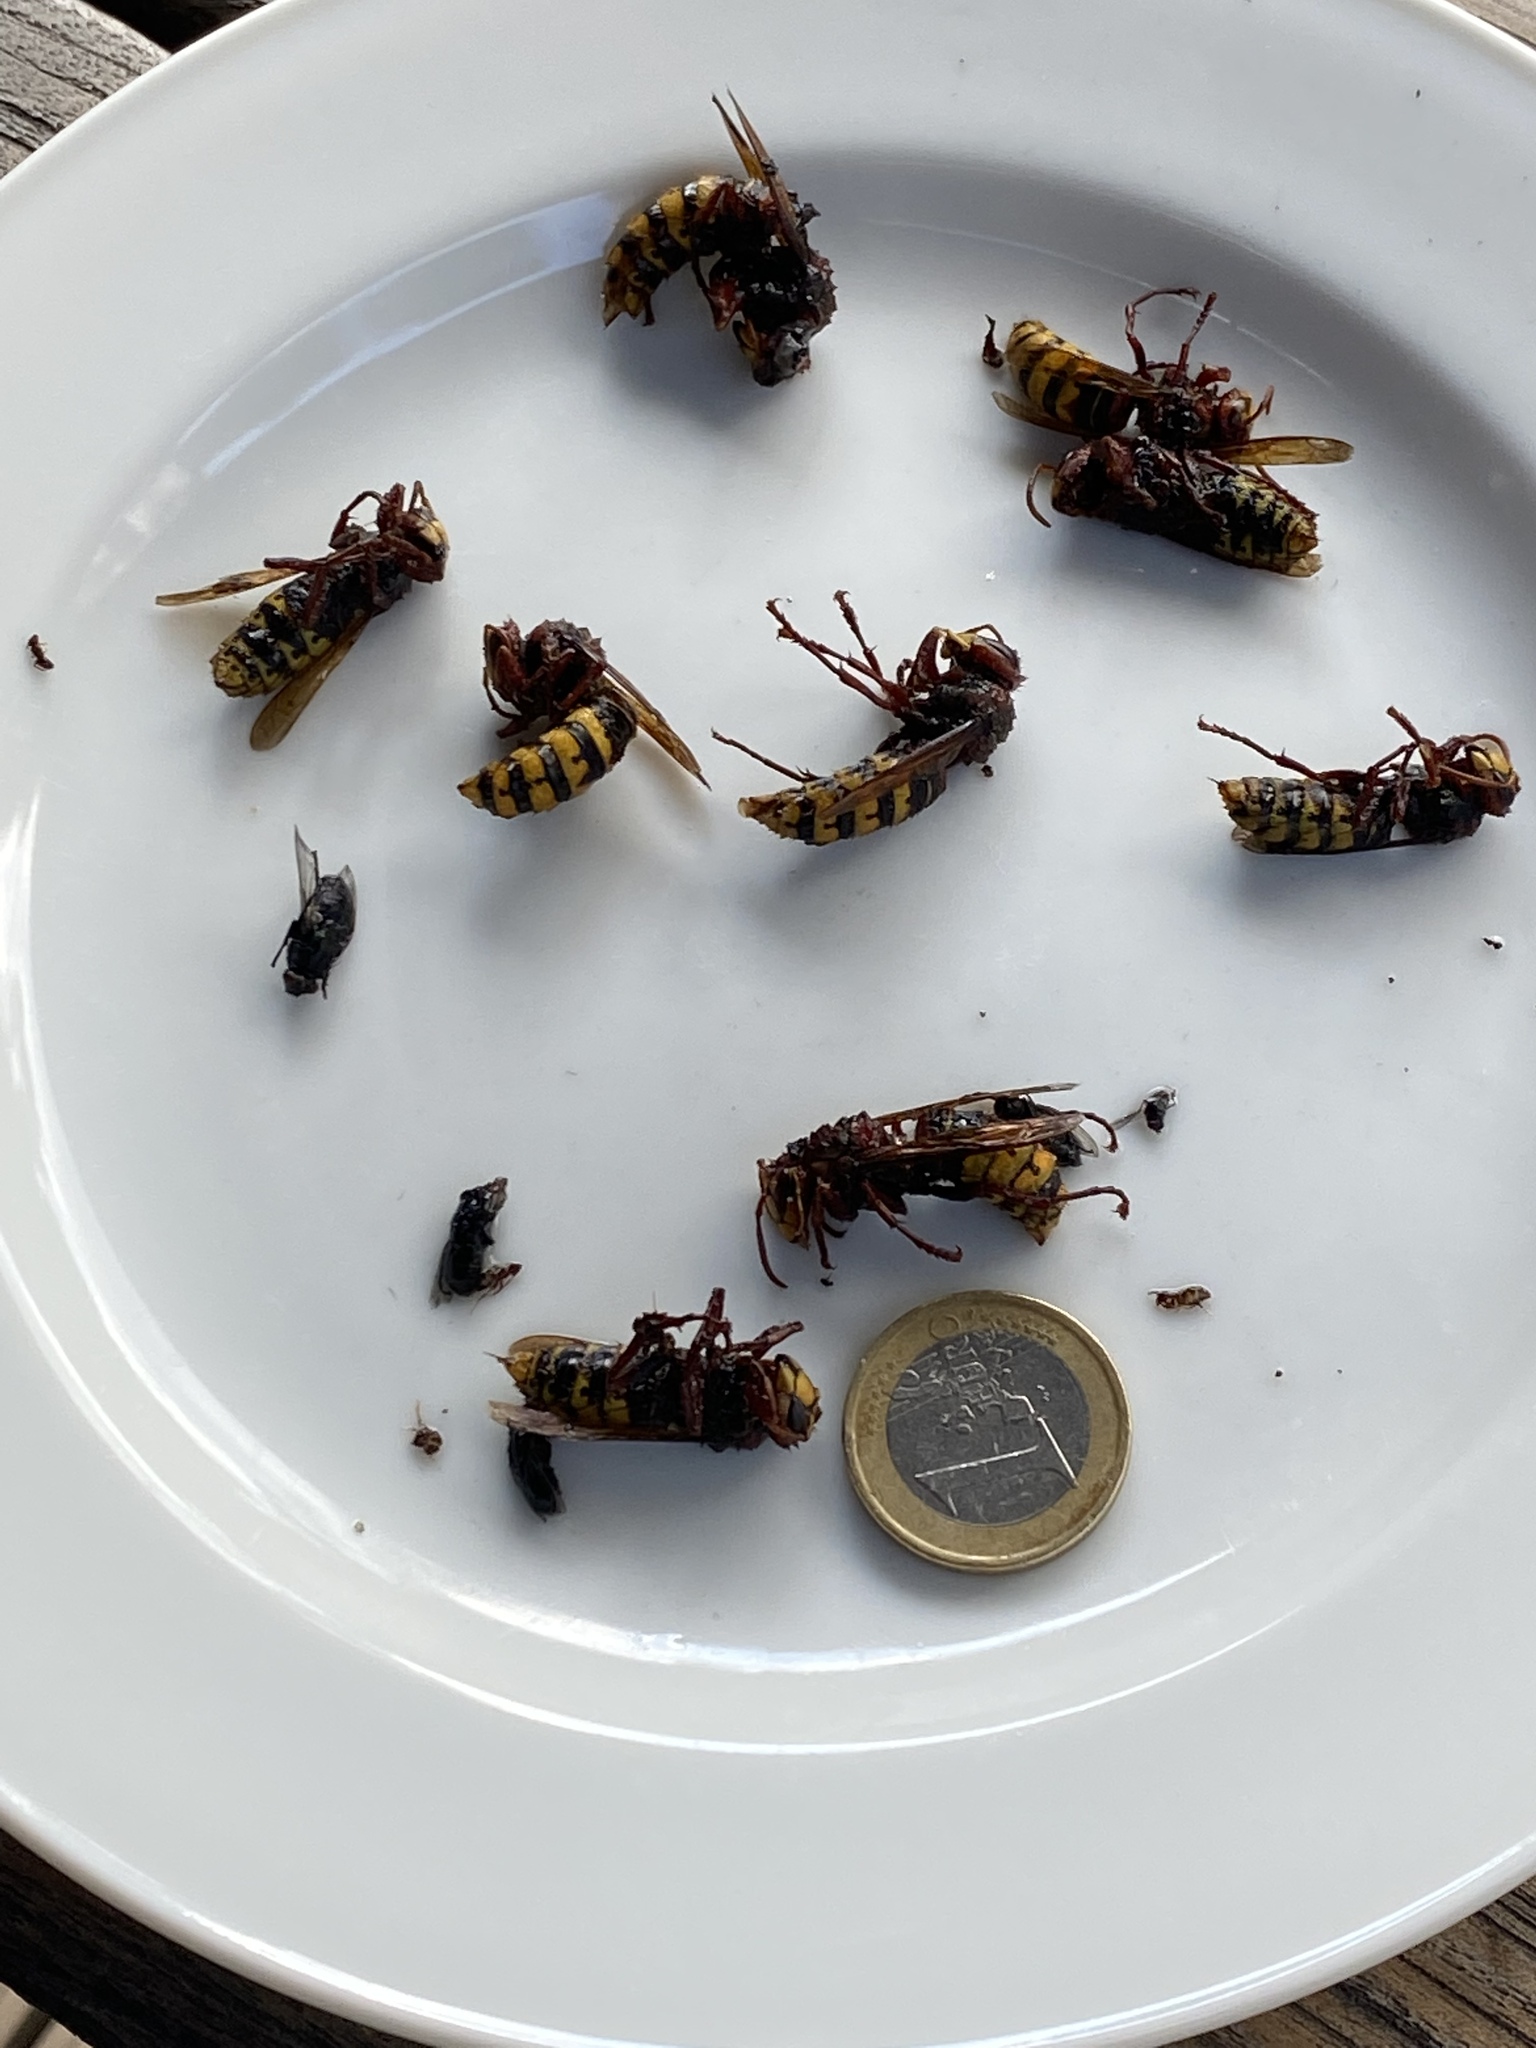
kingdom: Animalia
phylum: Arthropoda
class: Insecta
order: Hymenoptera
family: Vespidae
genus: Vespa
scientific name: Vespa crabro
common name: Hornet
